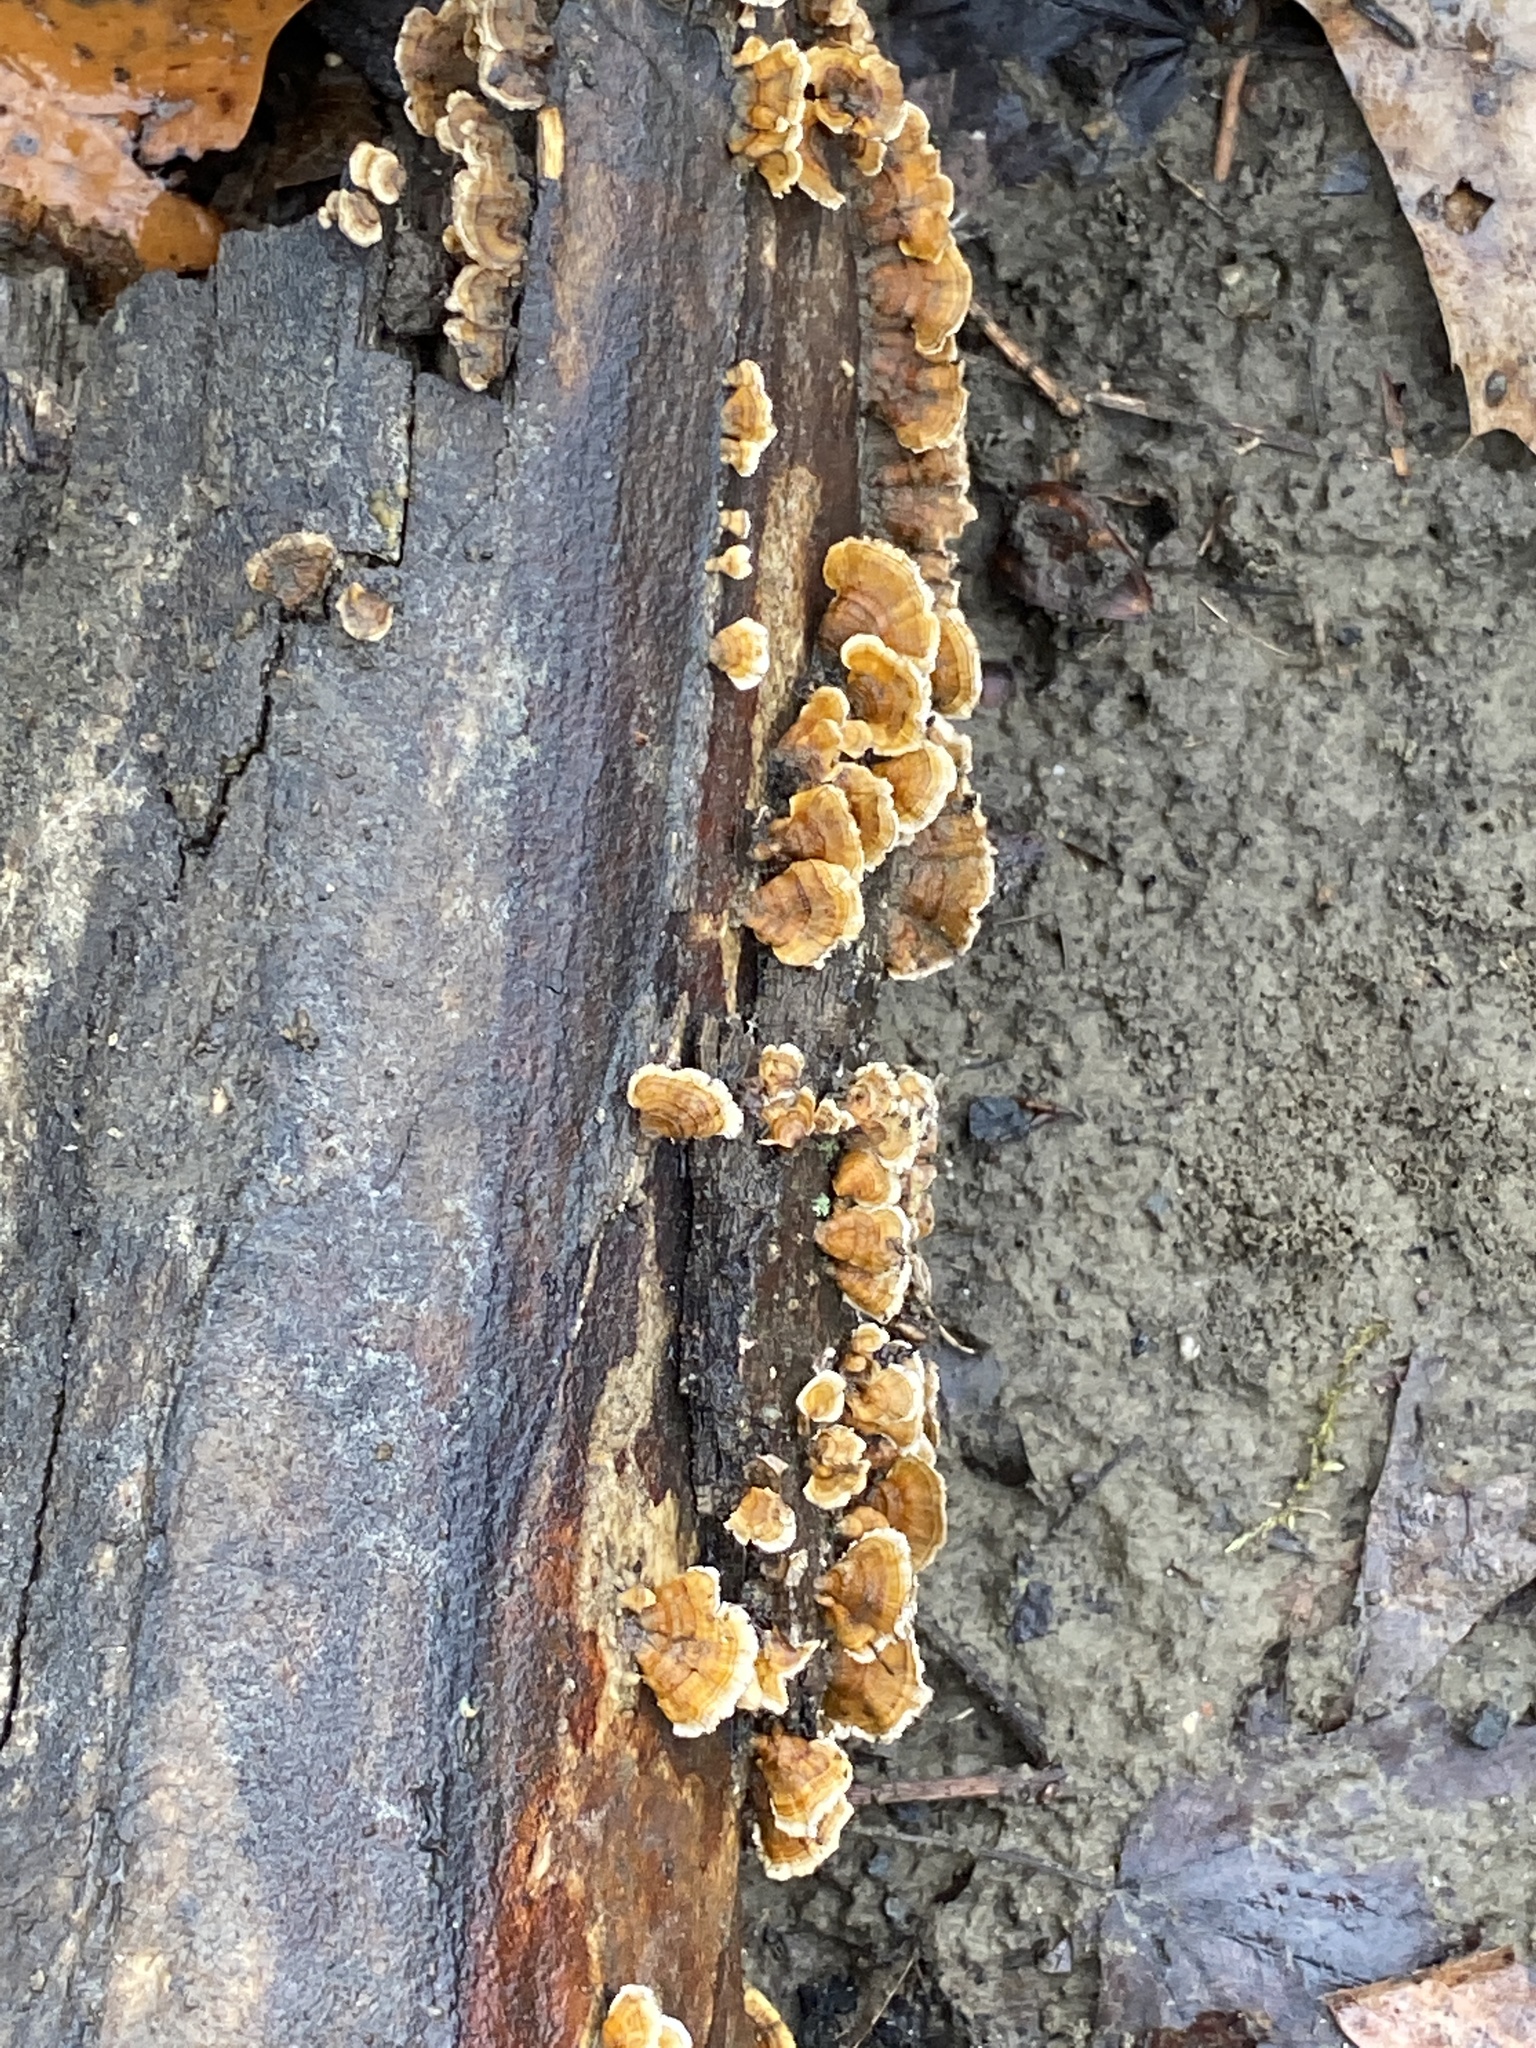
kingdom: Fungi
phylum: Basidiomycota
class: Agaricomycetes
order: Russulales
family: Stereaceae
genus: Stereum
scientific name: Stereum complicatum
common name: Crowded parchment
